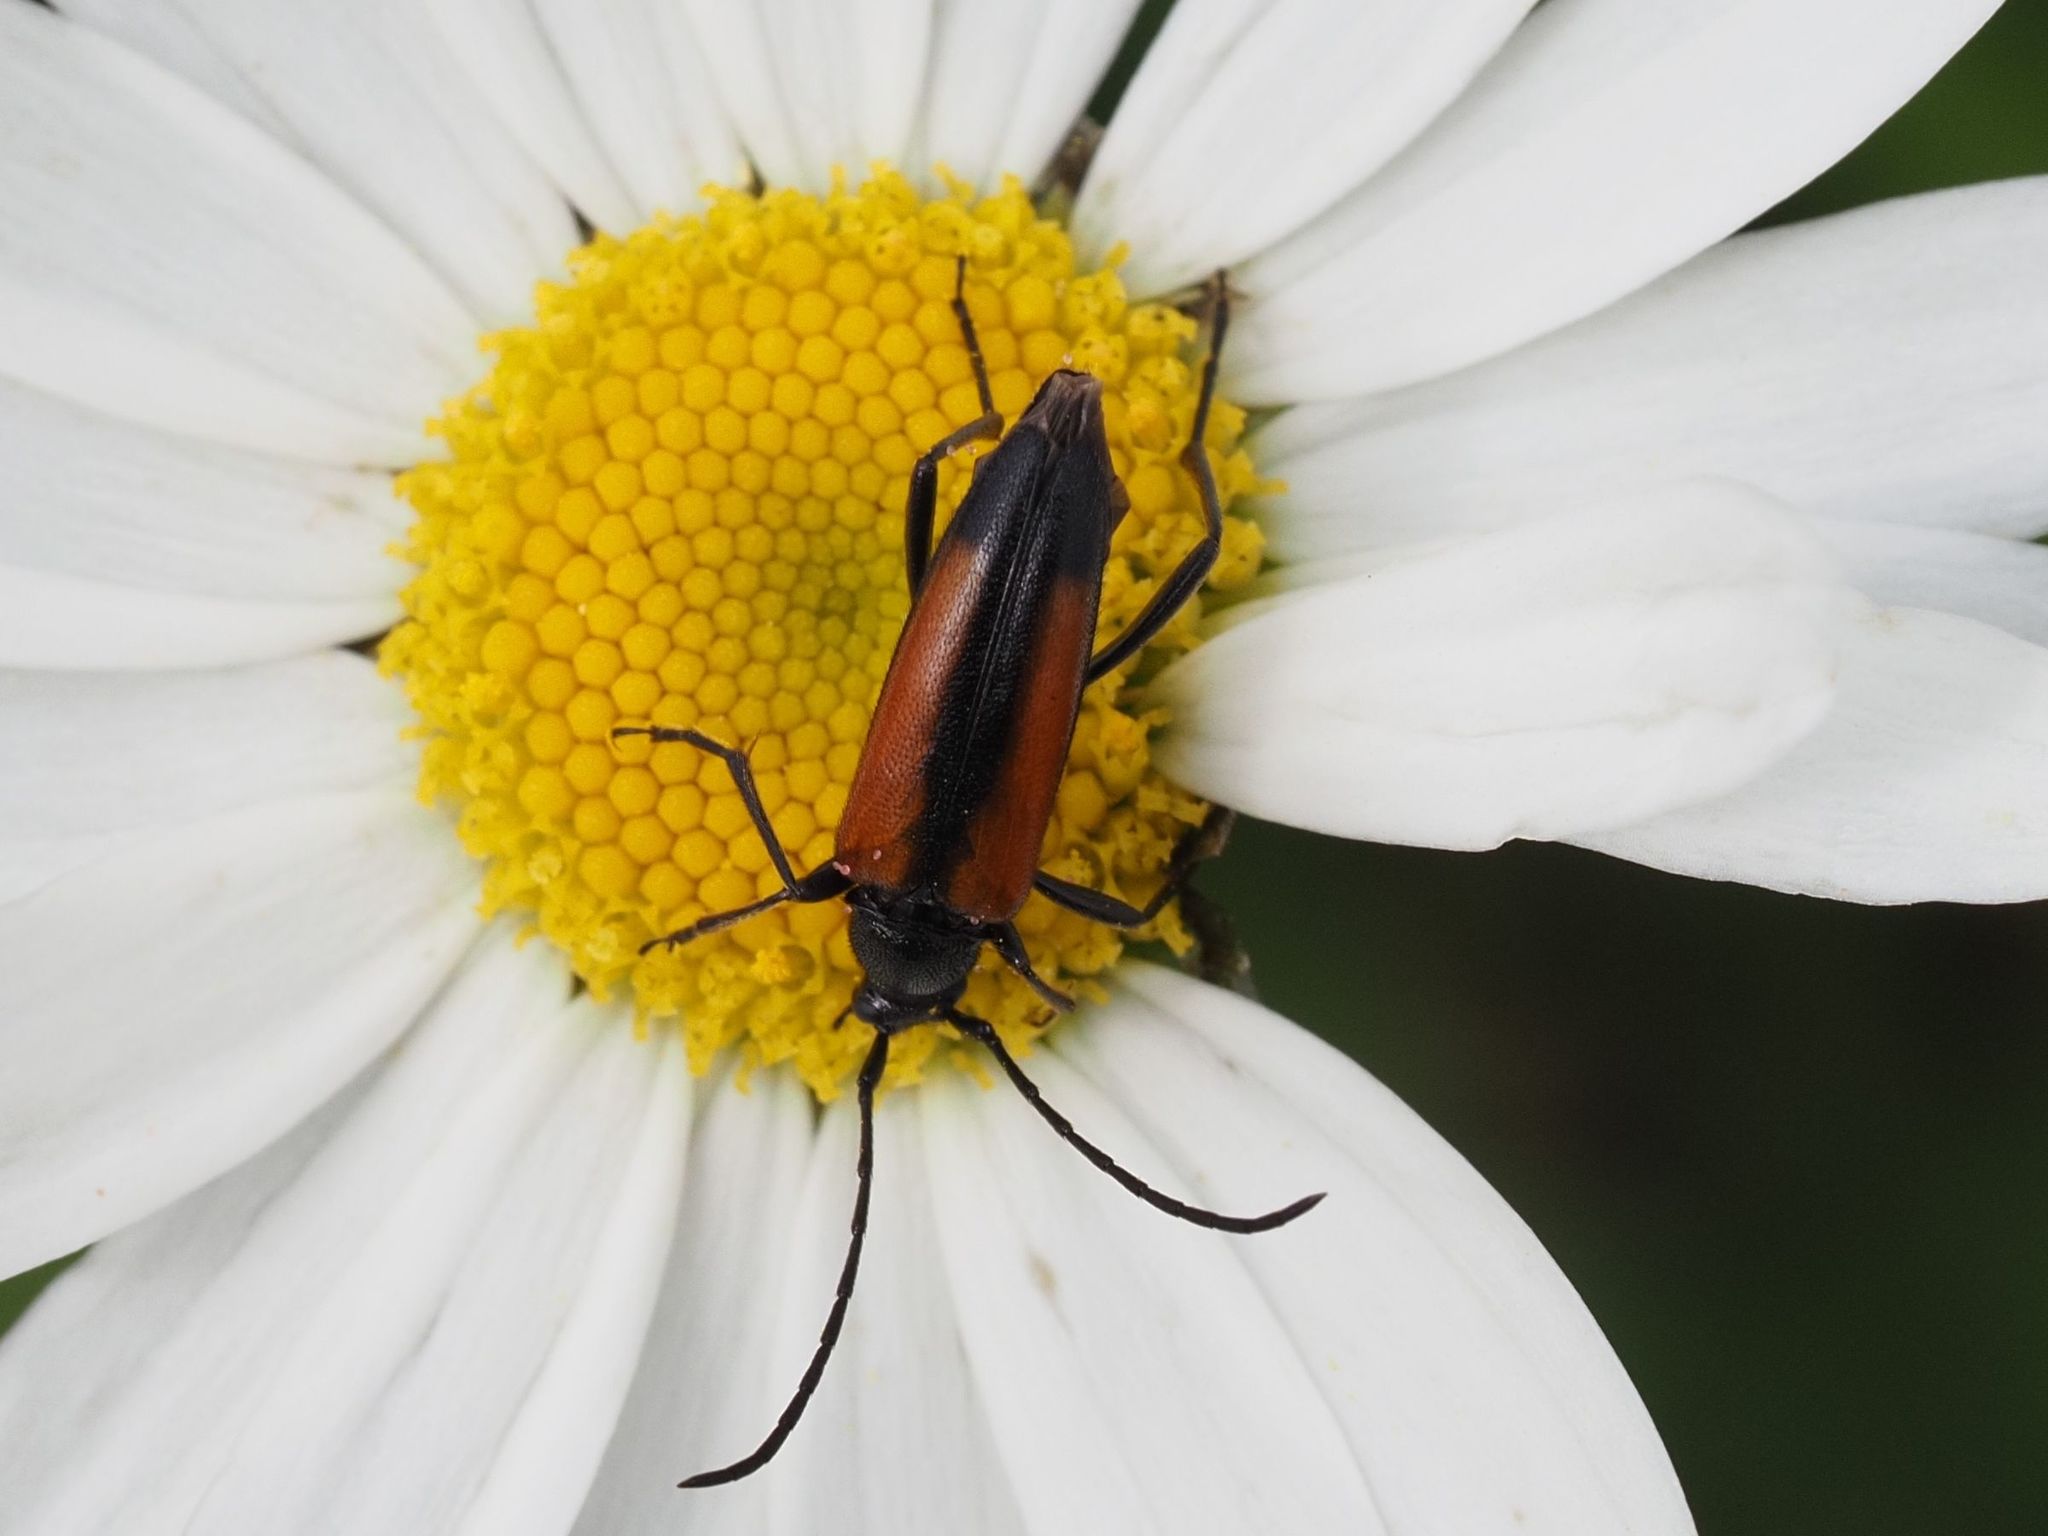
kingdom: Animalia
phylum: Arthropoda
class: Insecta
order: Coleoptera
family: Cerambycidae
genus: Stenurella
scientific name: Stenurella melanura
